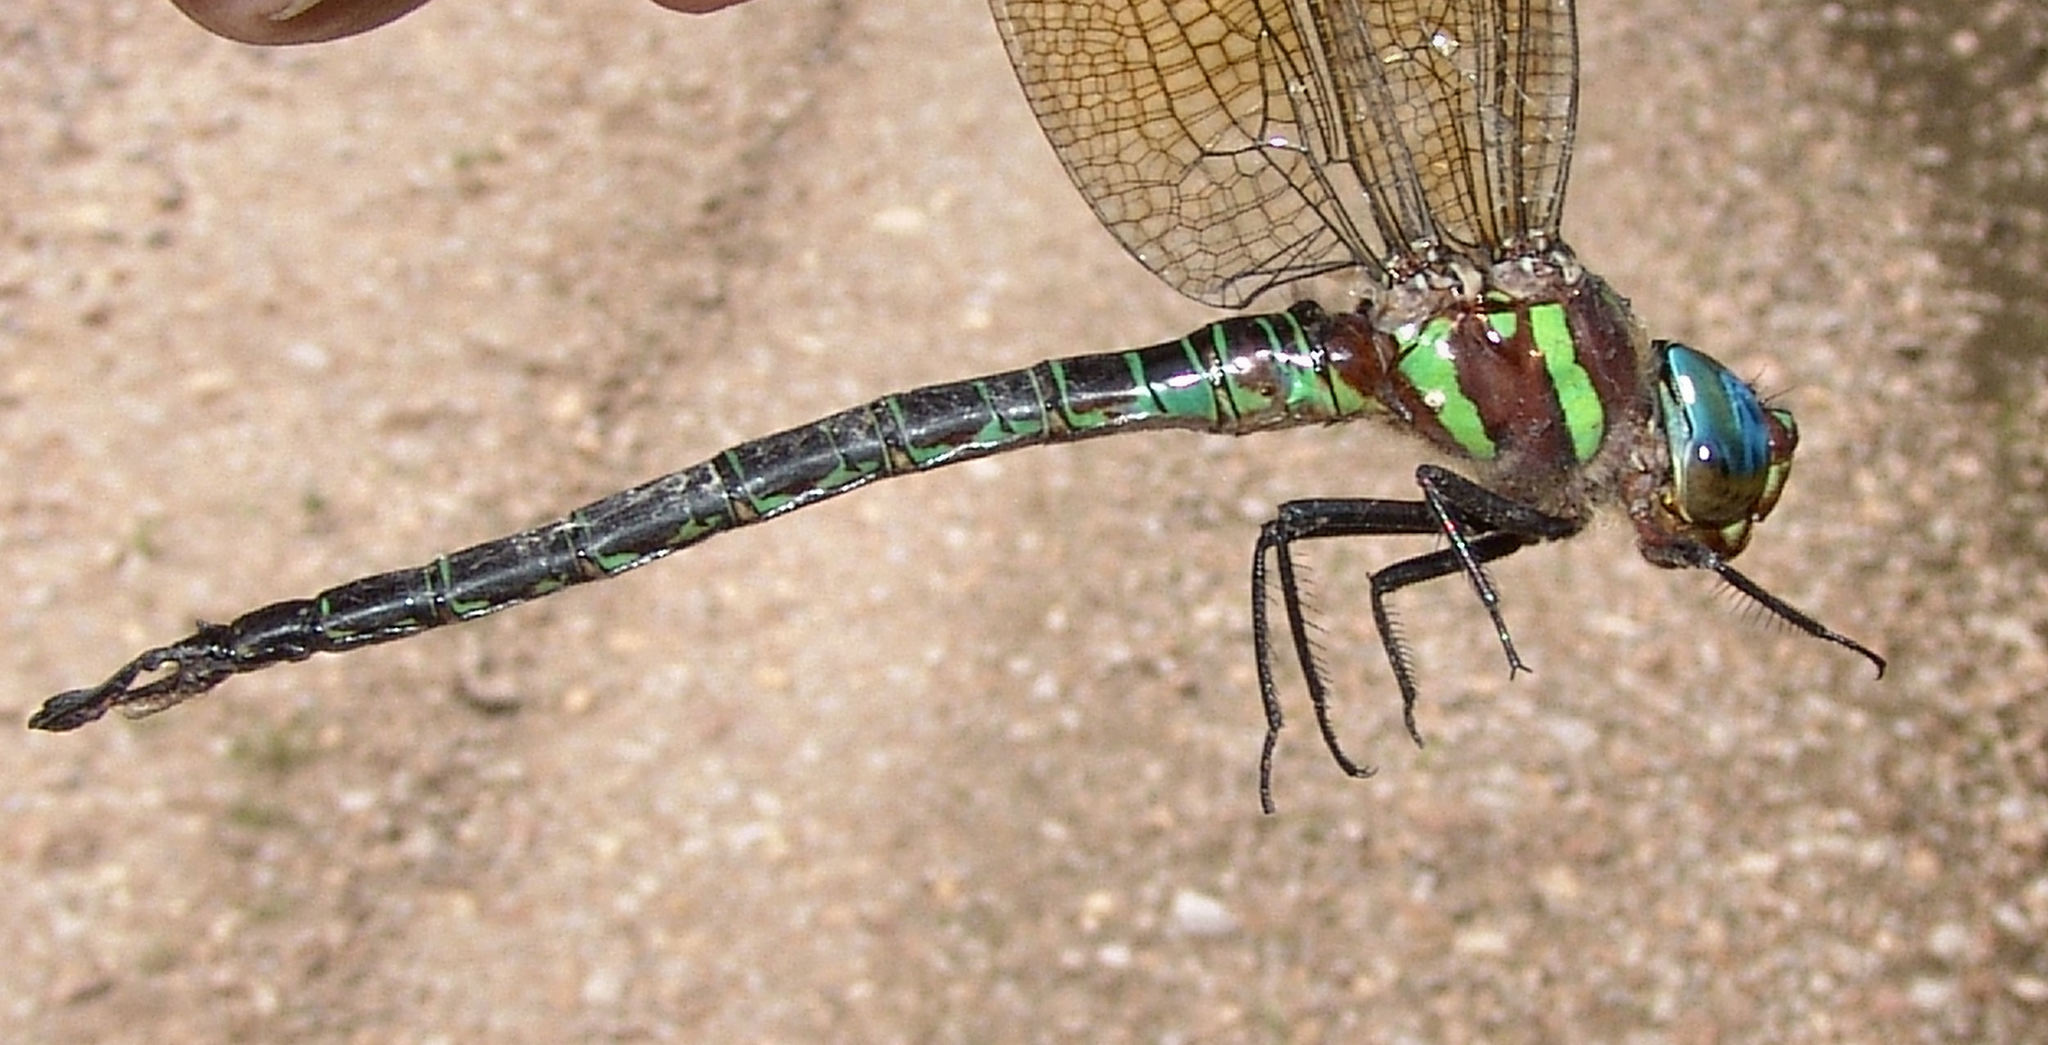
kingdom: Animalia
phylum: Arthropoda
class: Insecta
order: Odonata
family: Aeshnidae
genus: Epiaeschna
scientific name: Epiaeschna heros
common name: Swamp darner
